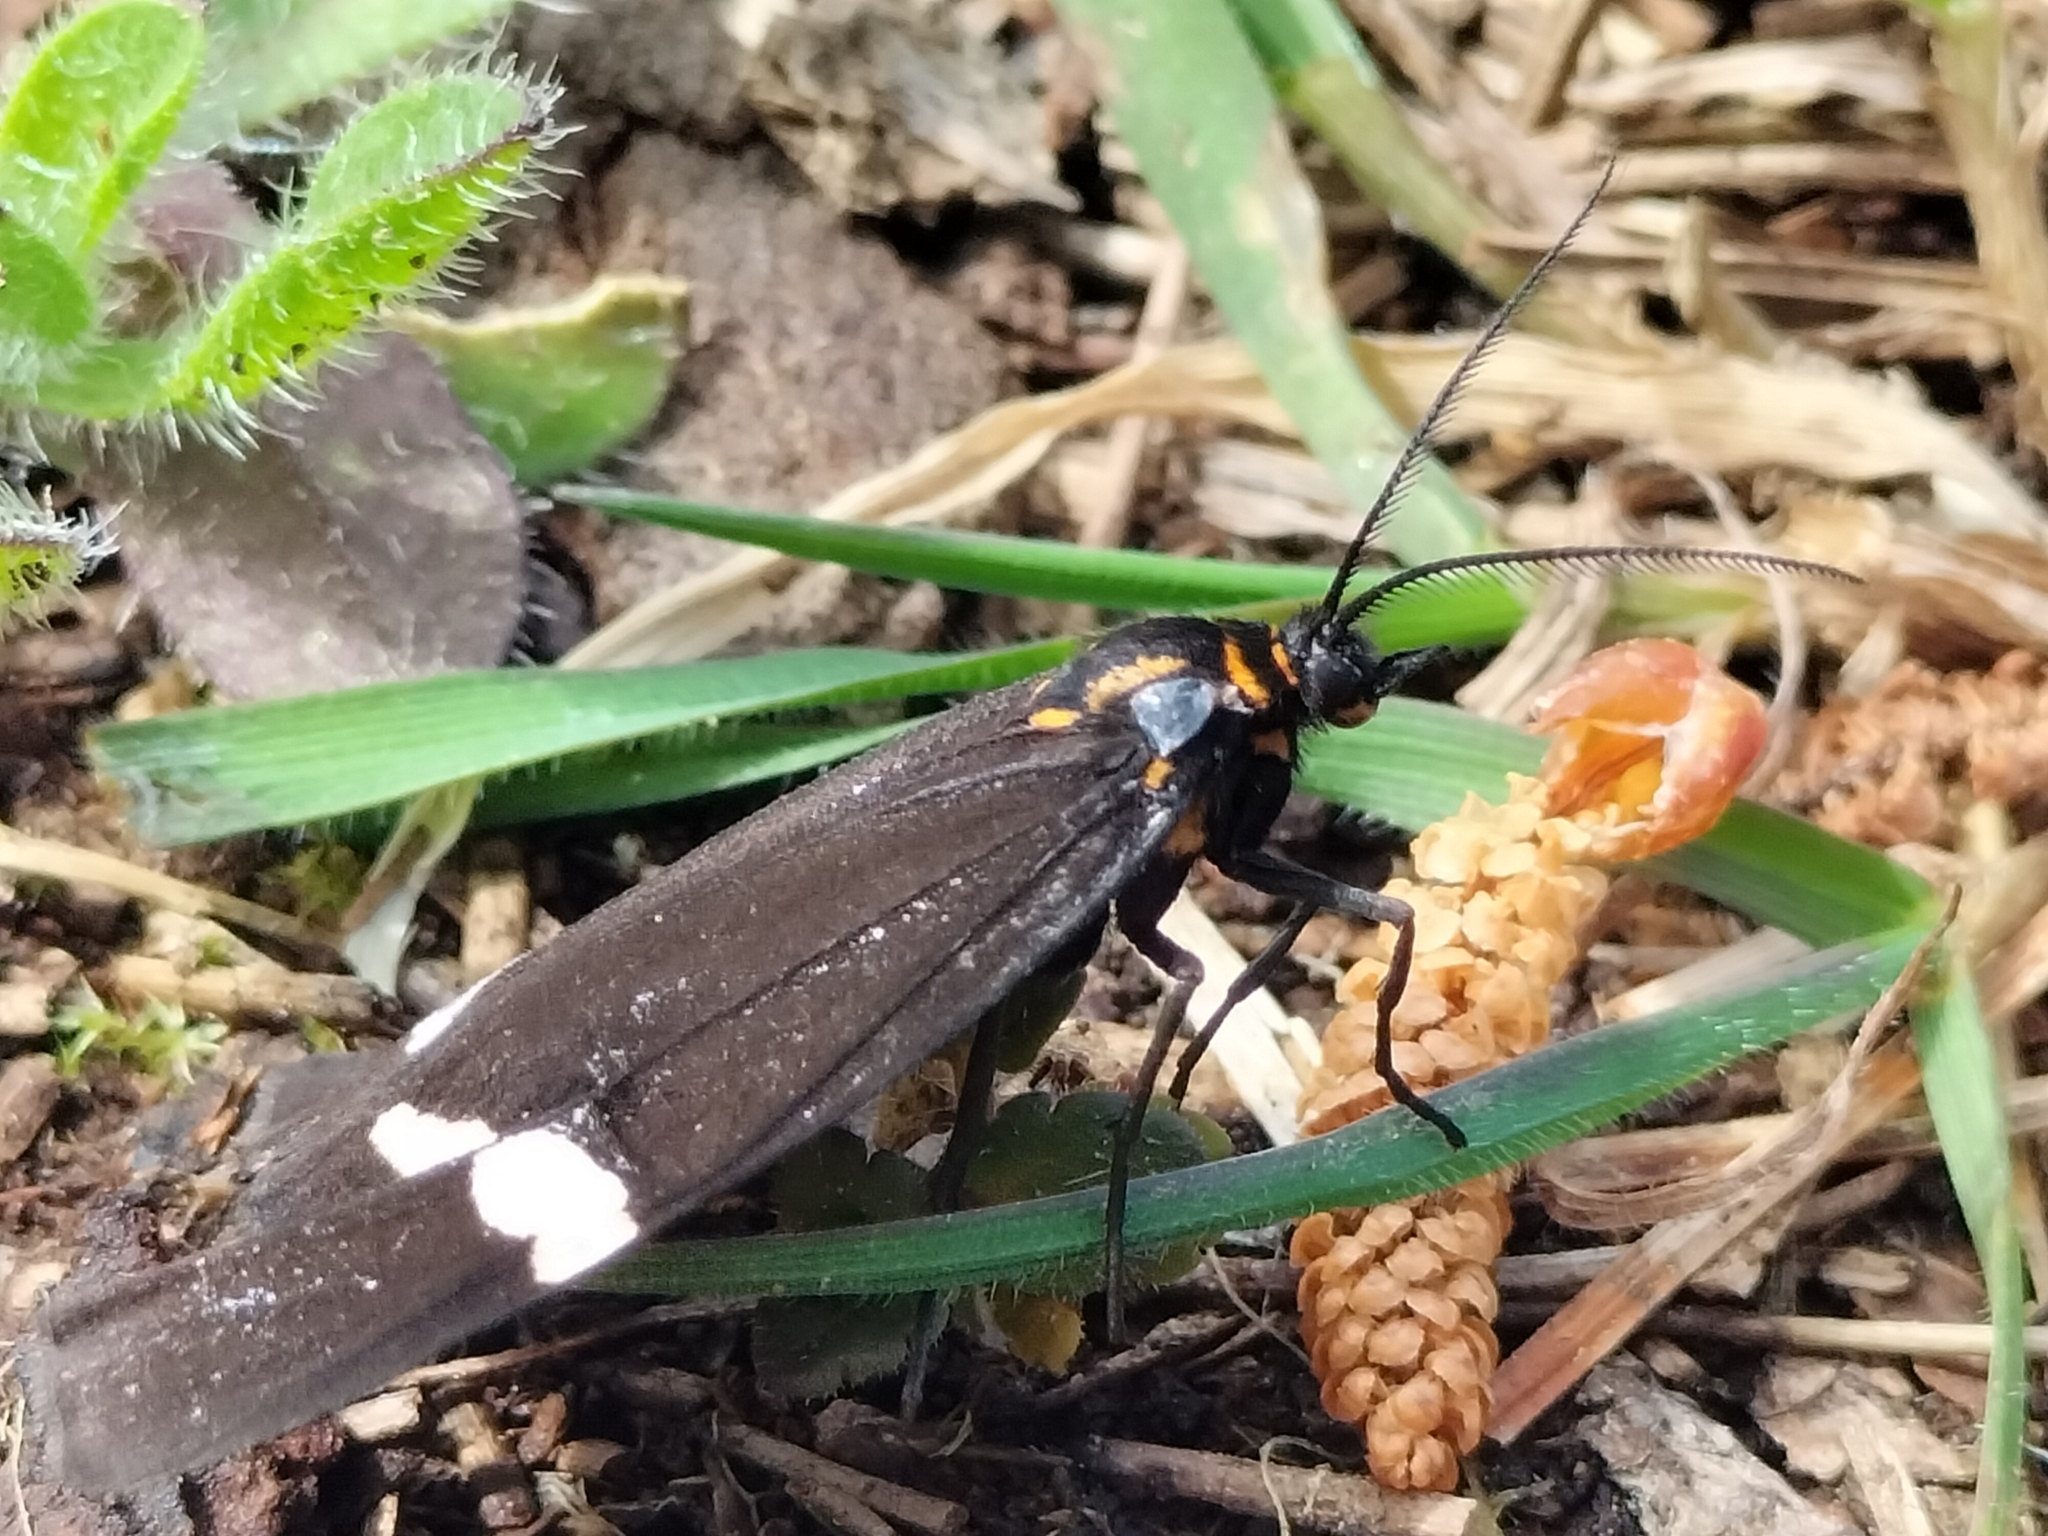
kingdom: Animalia
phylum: Arthropoda
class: Insecta
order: Lepidoptera
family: Erebidae
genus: Nyctemera
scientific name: Nyctemera
